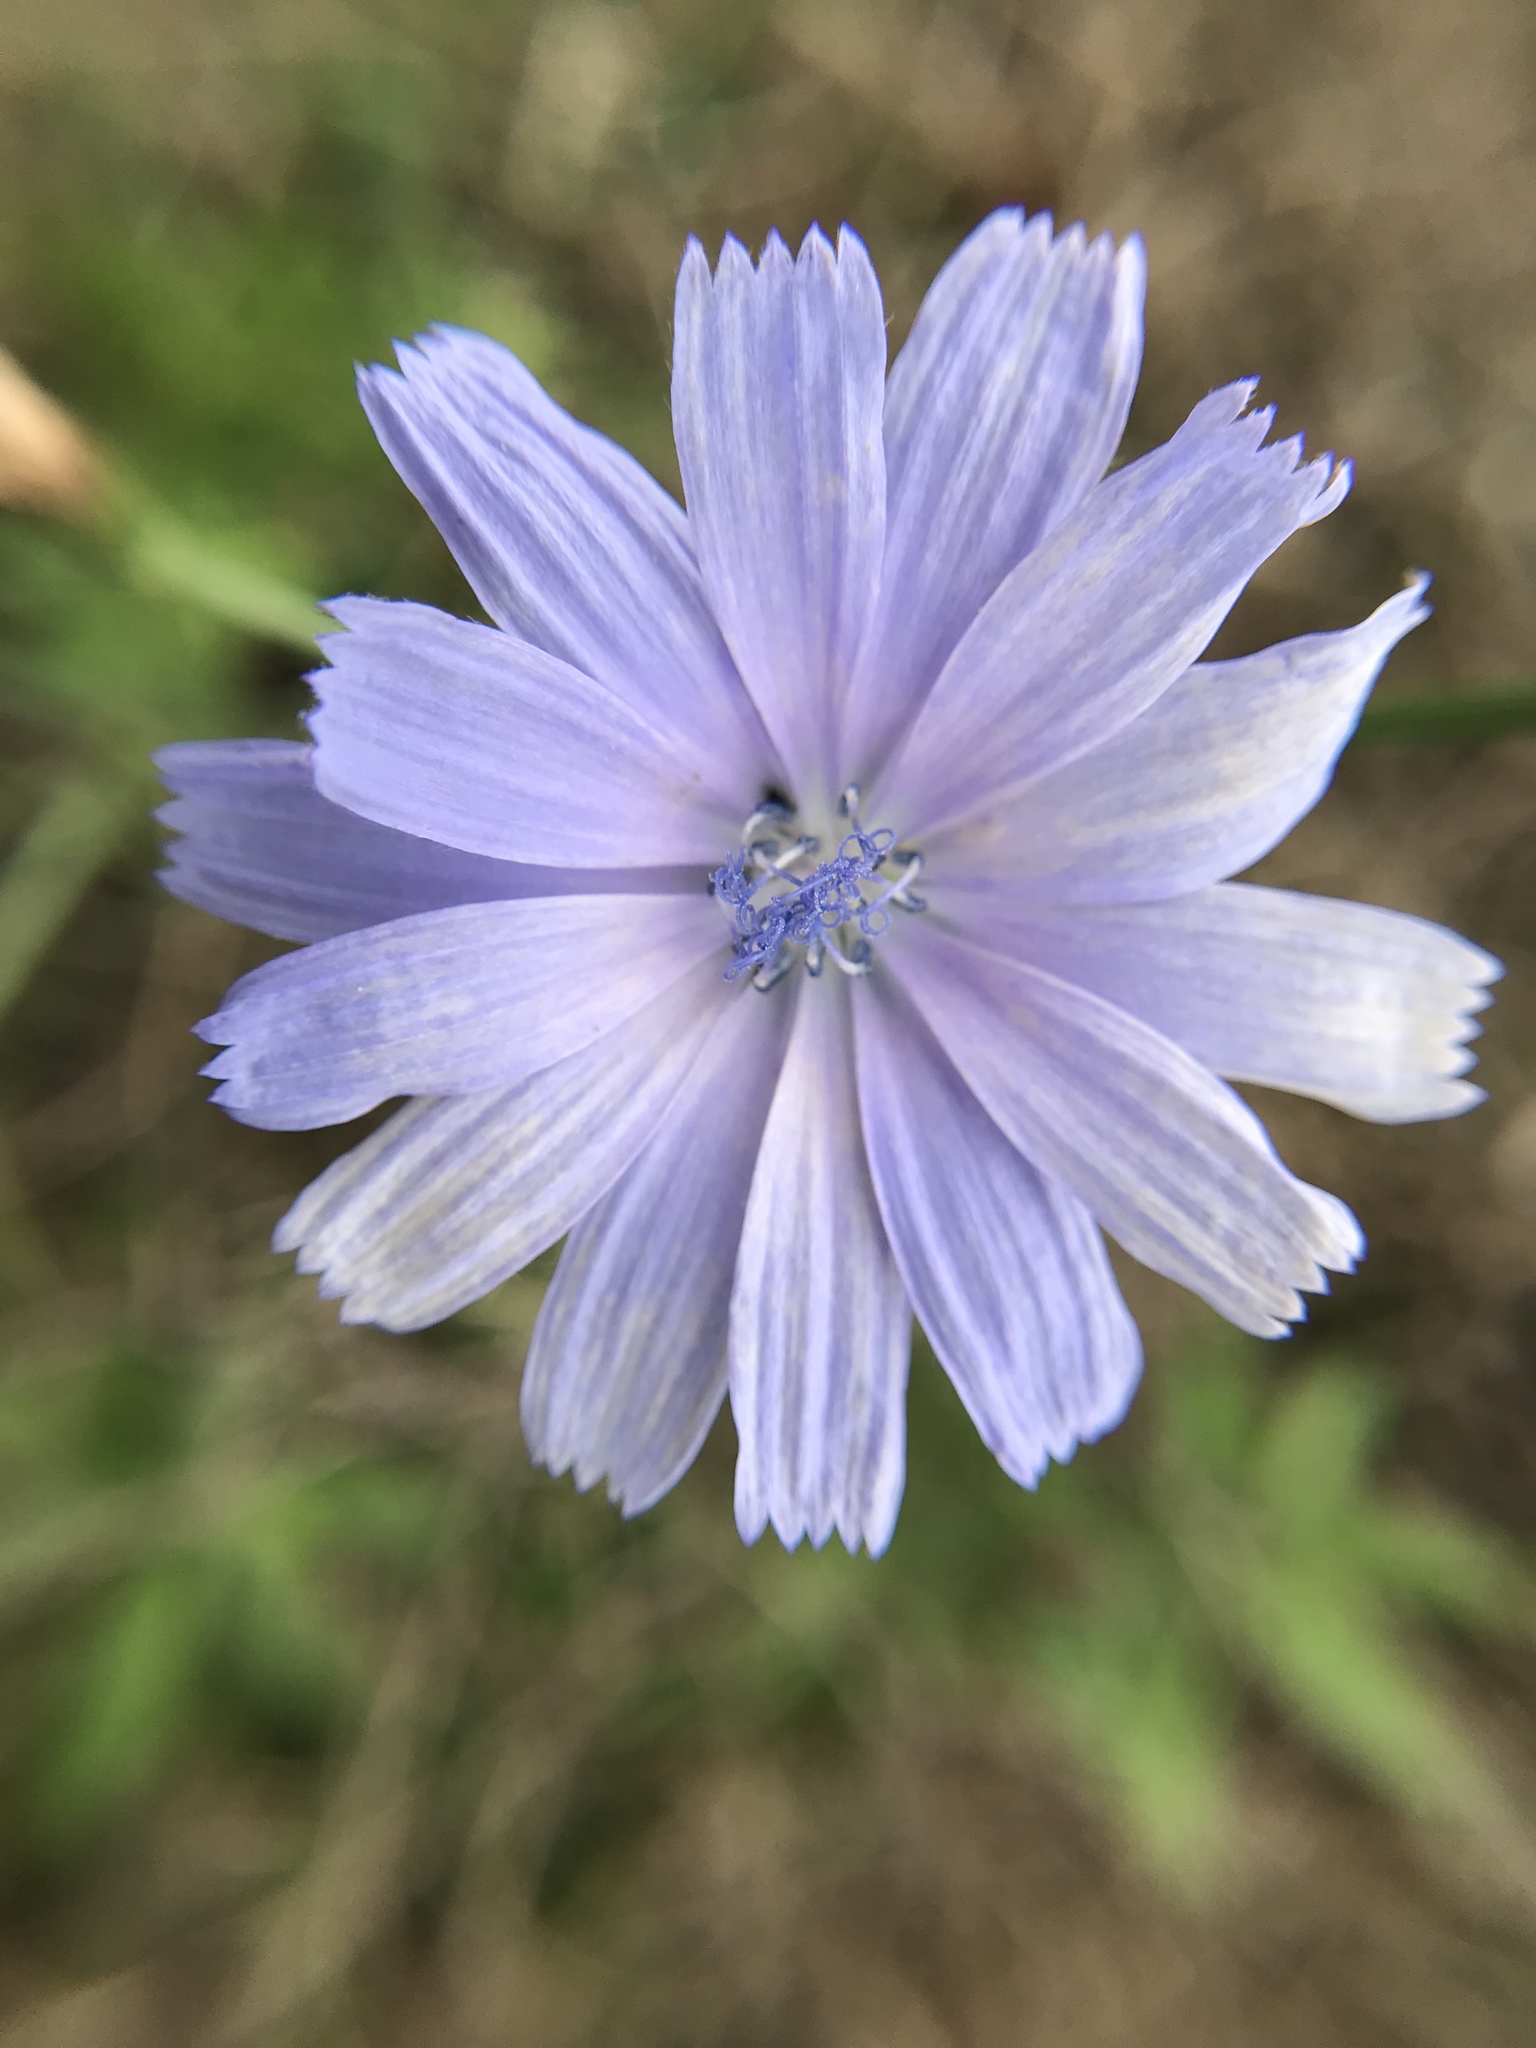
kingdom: Plantae
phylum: Tracheophyta
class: Magnoliopsida
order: Asterales
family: Asteraceae
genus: Cichorium
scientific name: Cichorium intybus
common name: Chicory
